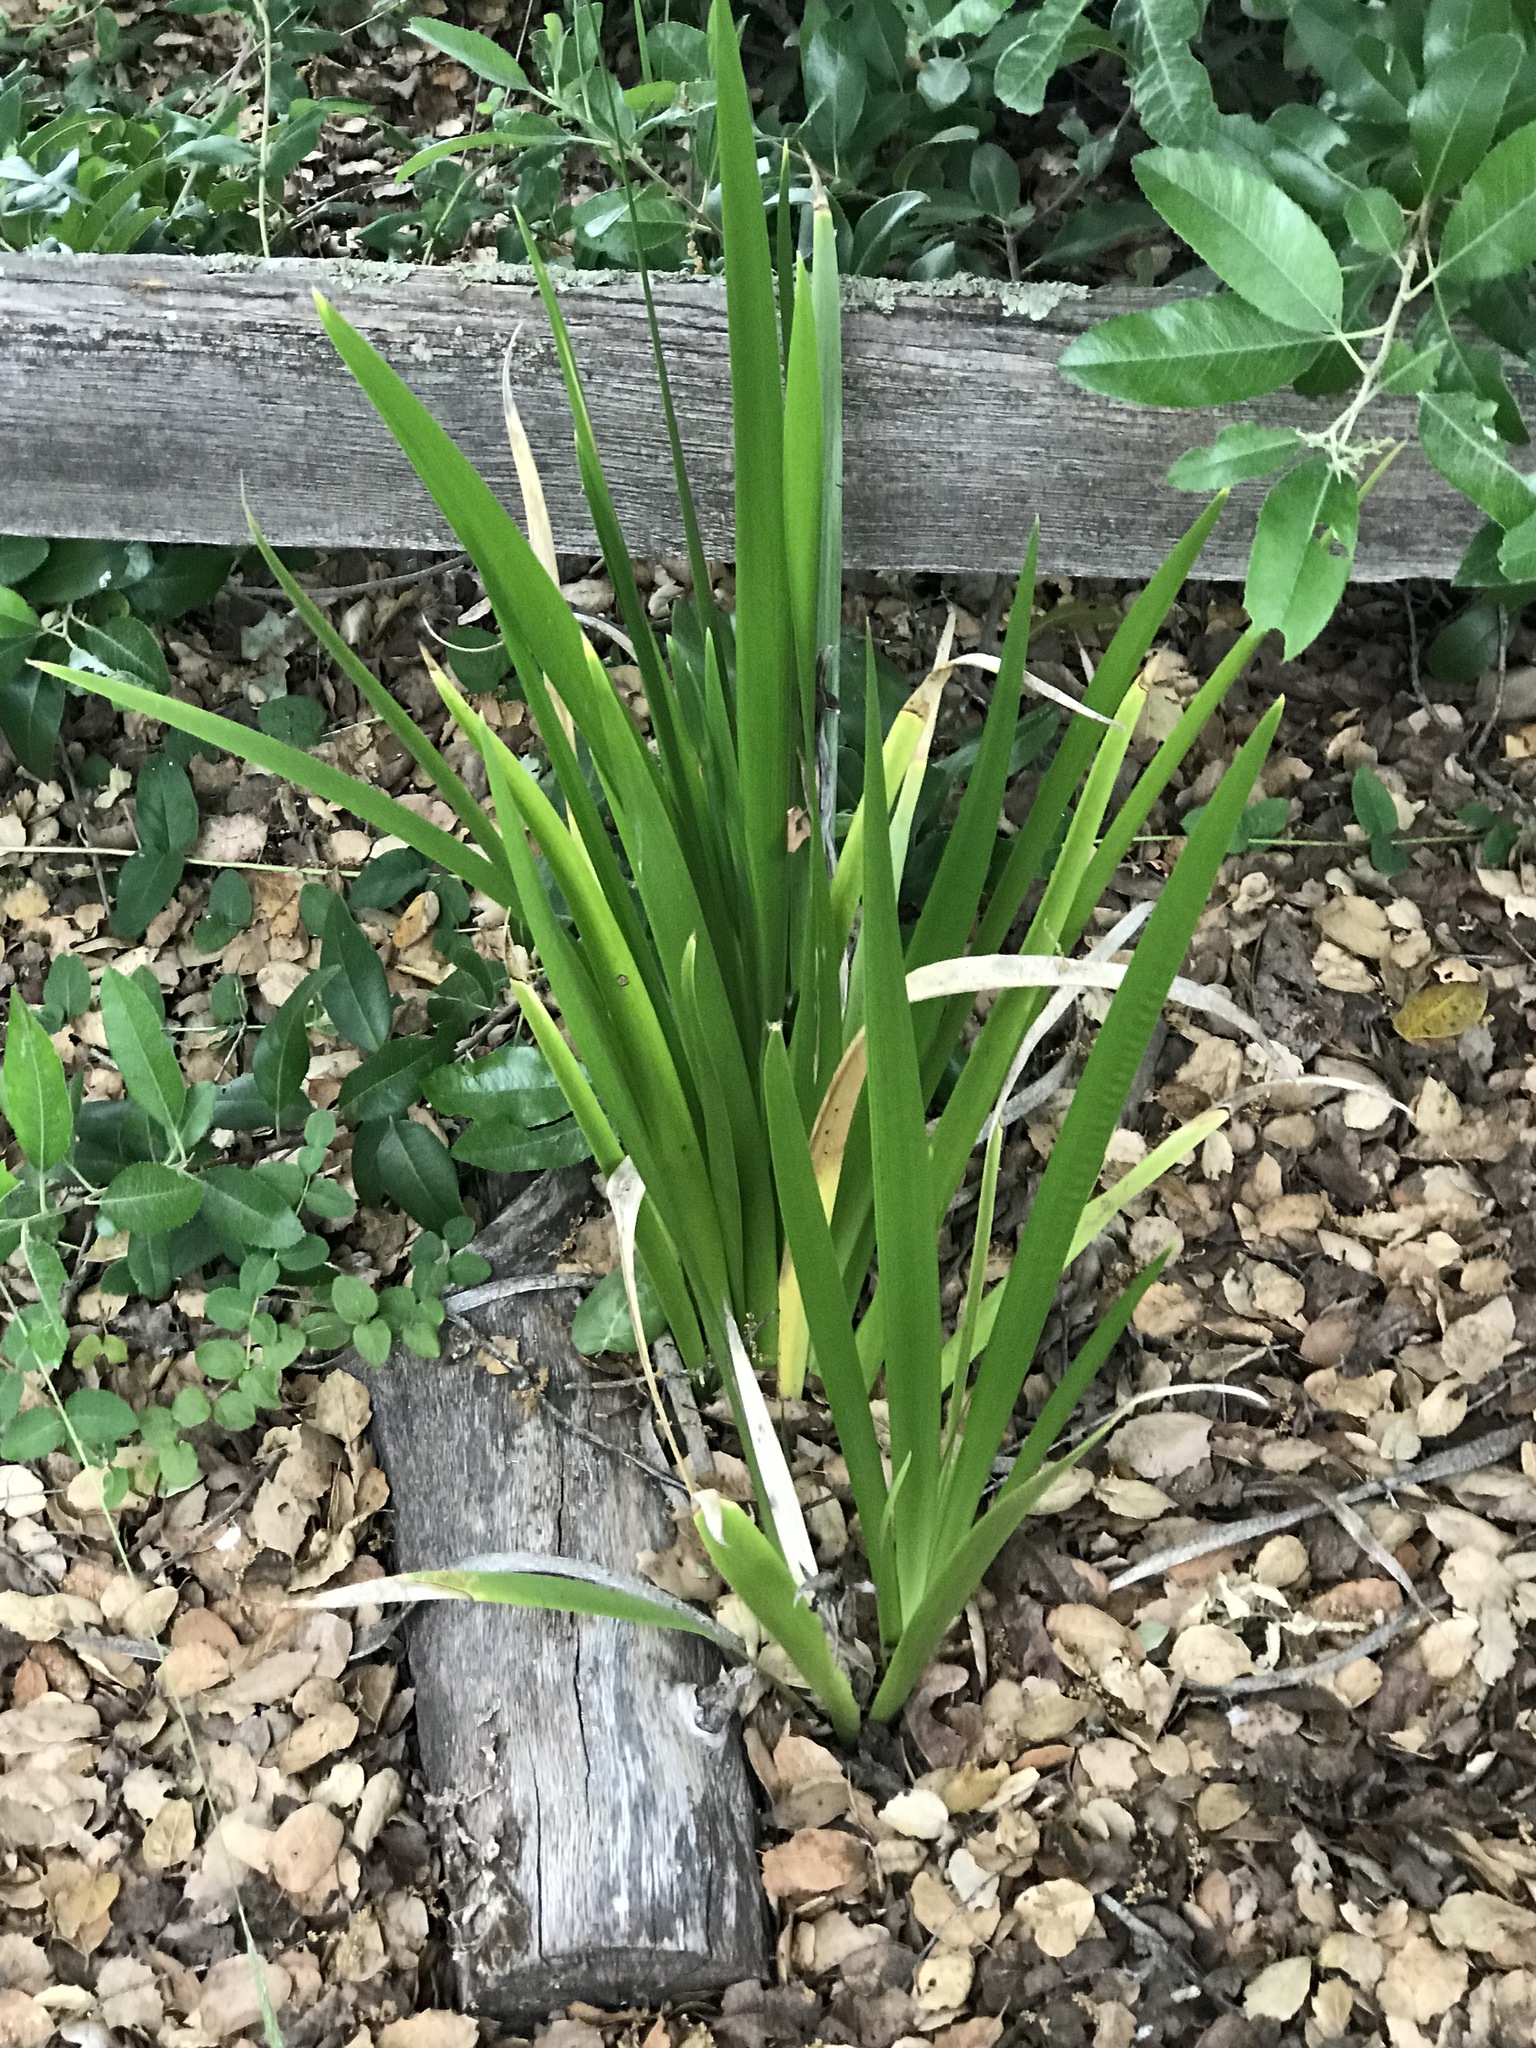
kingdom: Plantae
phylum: Tracheophyta
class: Liliopsida
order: Asparagales
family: Iridaceae
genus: Iris
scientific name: Iris foetidissima
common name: Stinking iris
